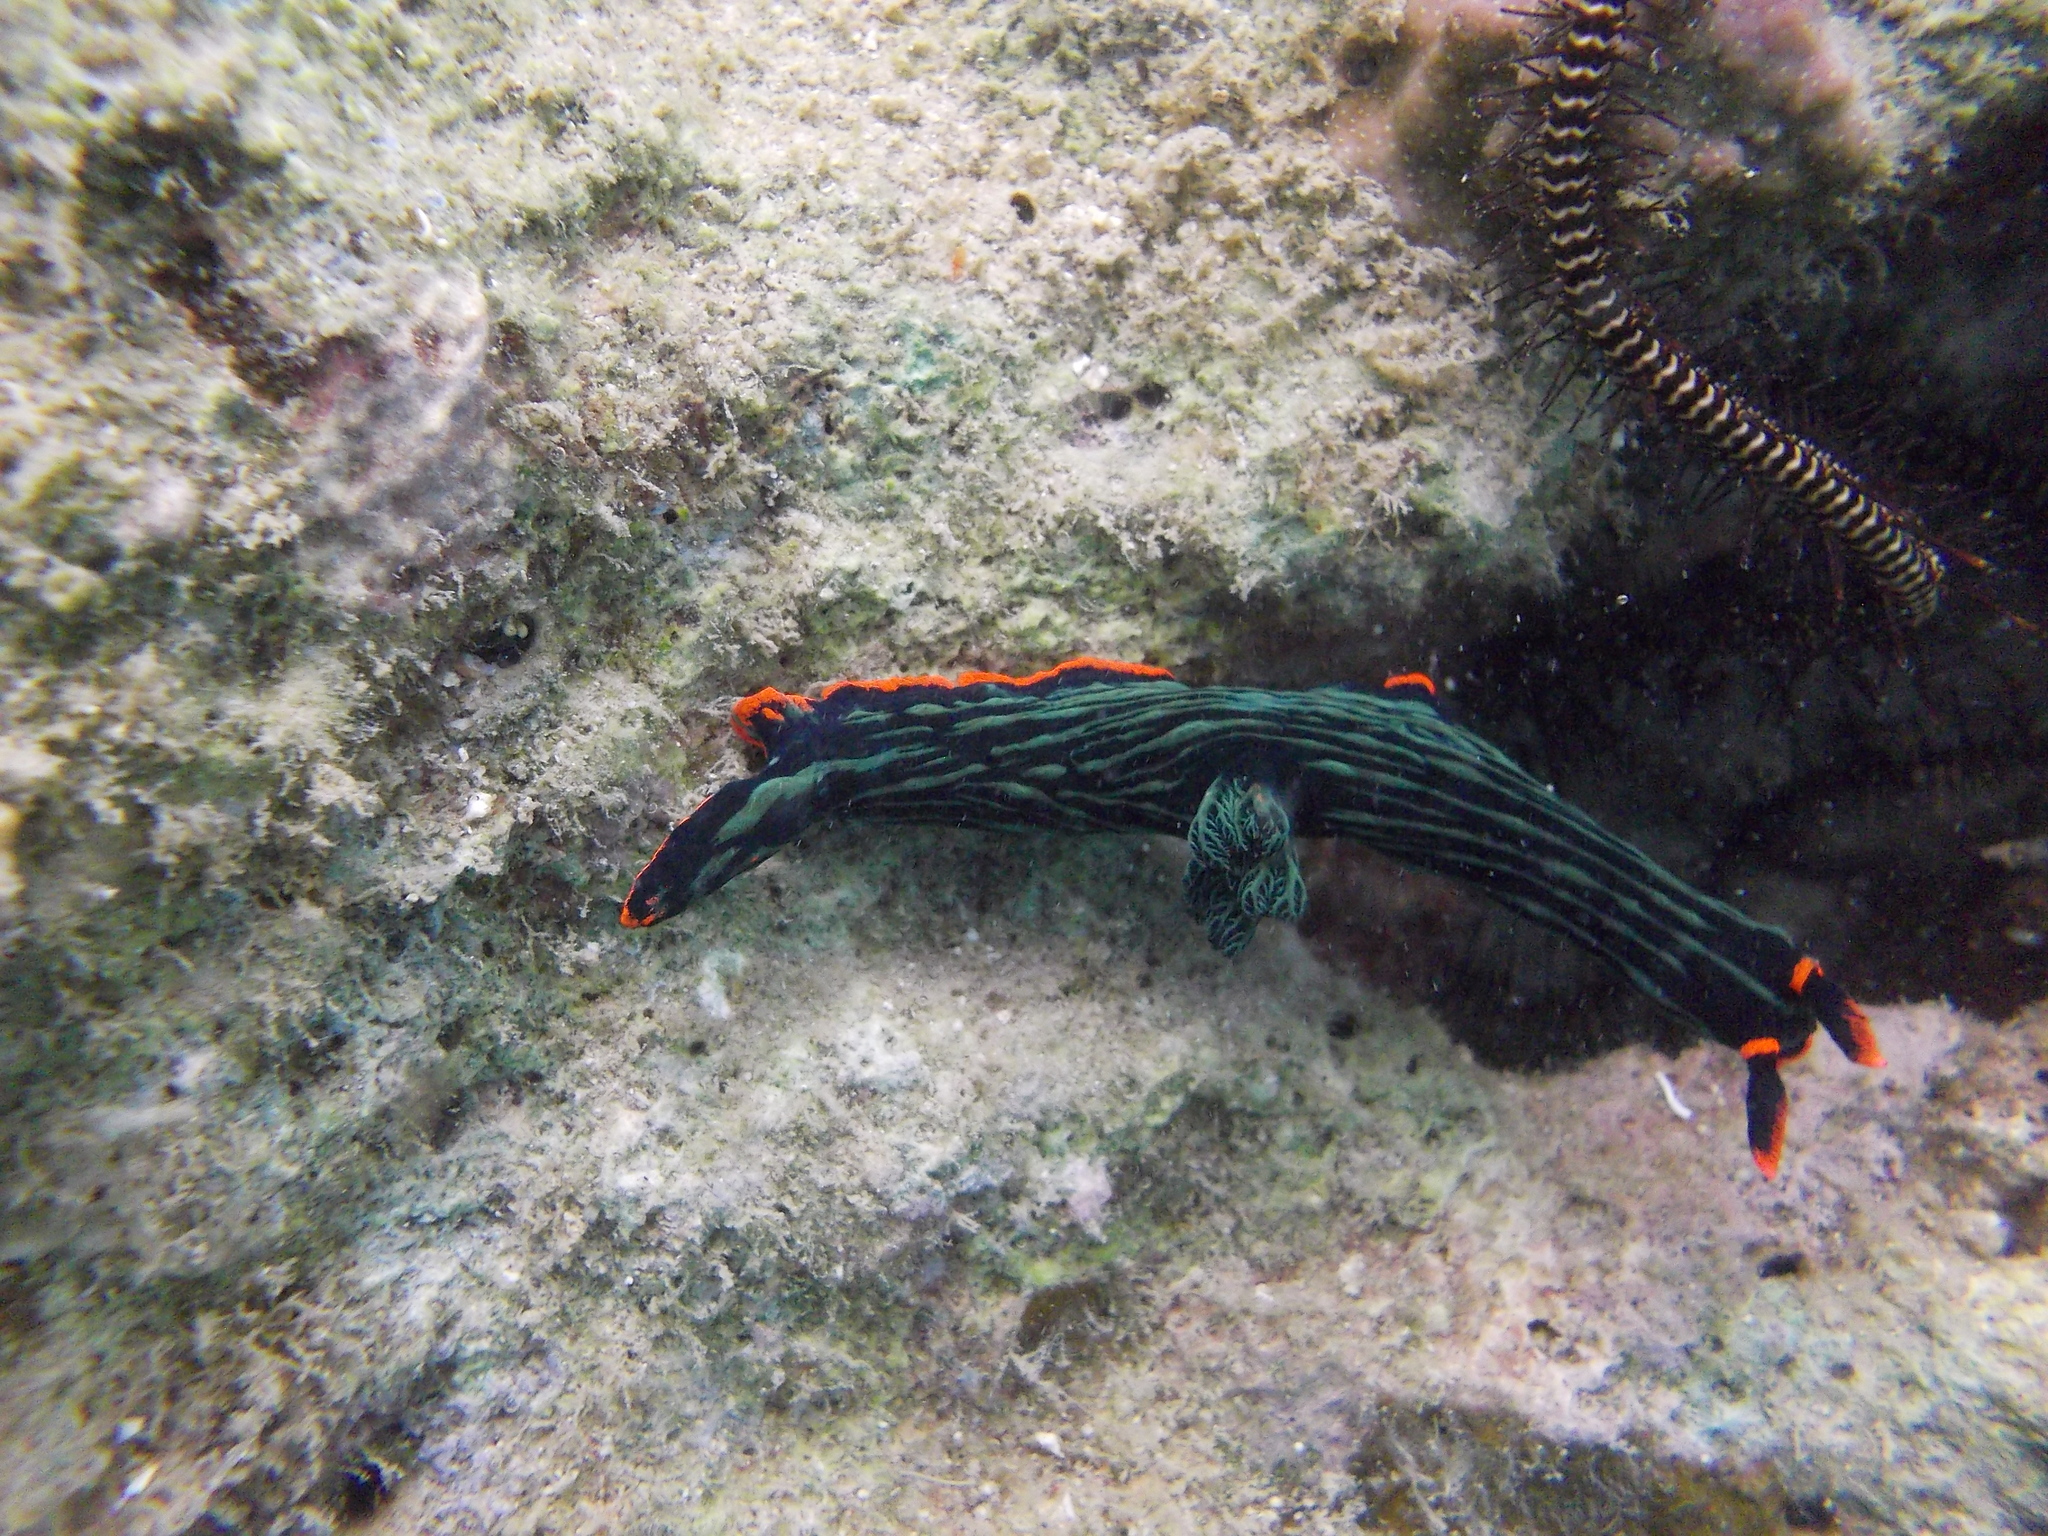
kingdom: Animalia
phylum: Mollusca
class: Gastropoda
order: Nudibranchia
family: Polyceridae
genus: Nembrotha
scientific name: Nembrotha kubaryana
